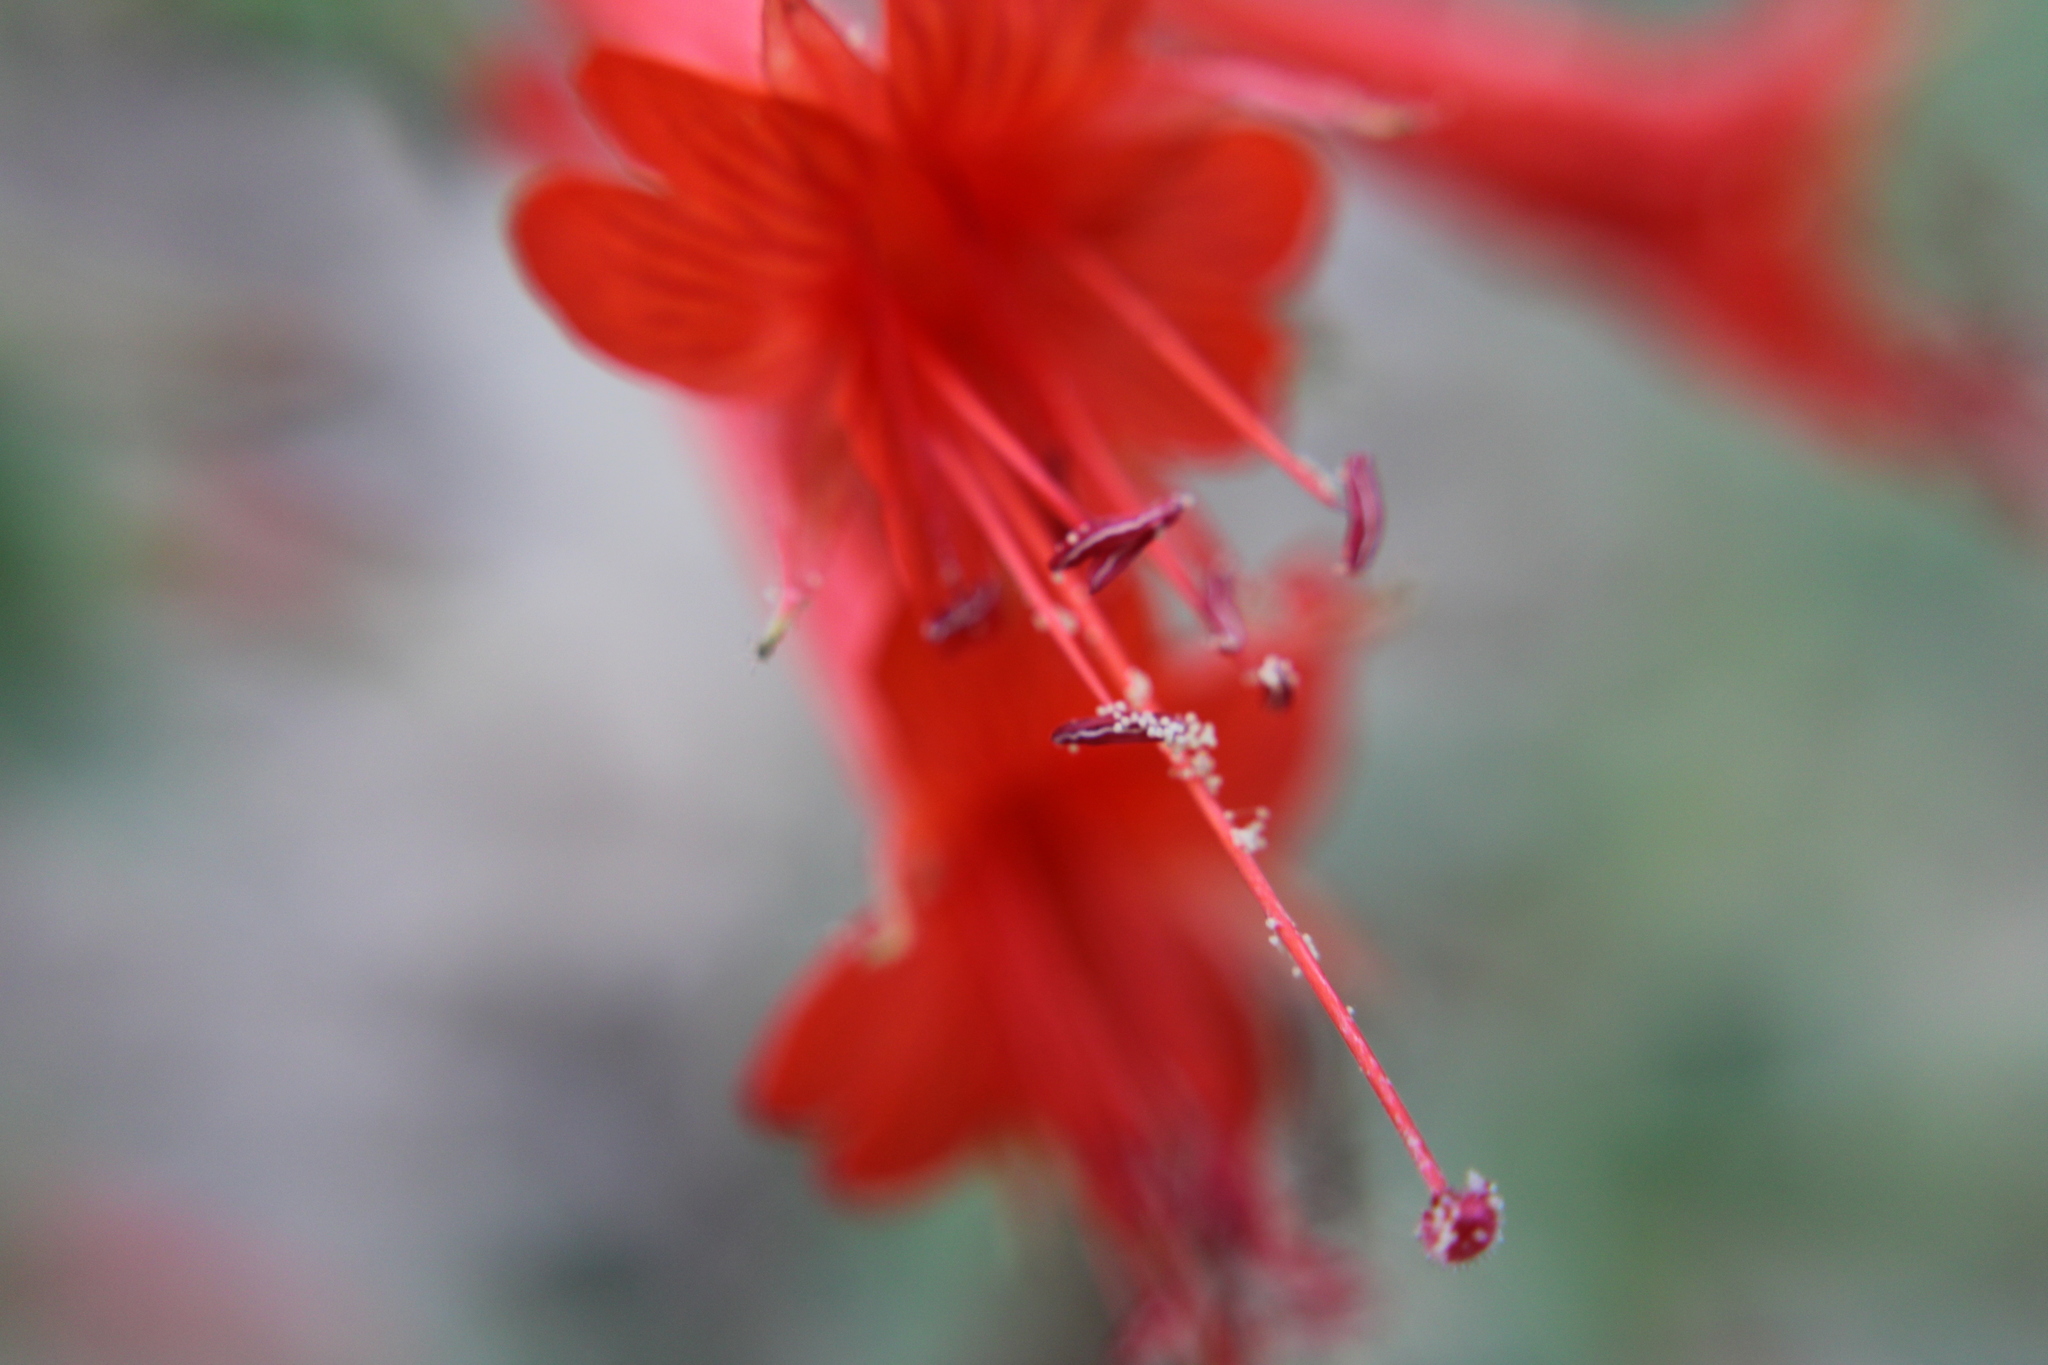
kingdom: Plantae
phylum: Tracheophyta
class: Magnoliopsida
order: Myrtales
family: Onagraceae
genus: Epilobium
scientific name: Epilobium canum
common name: California-fuchsia
